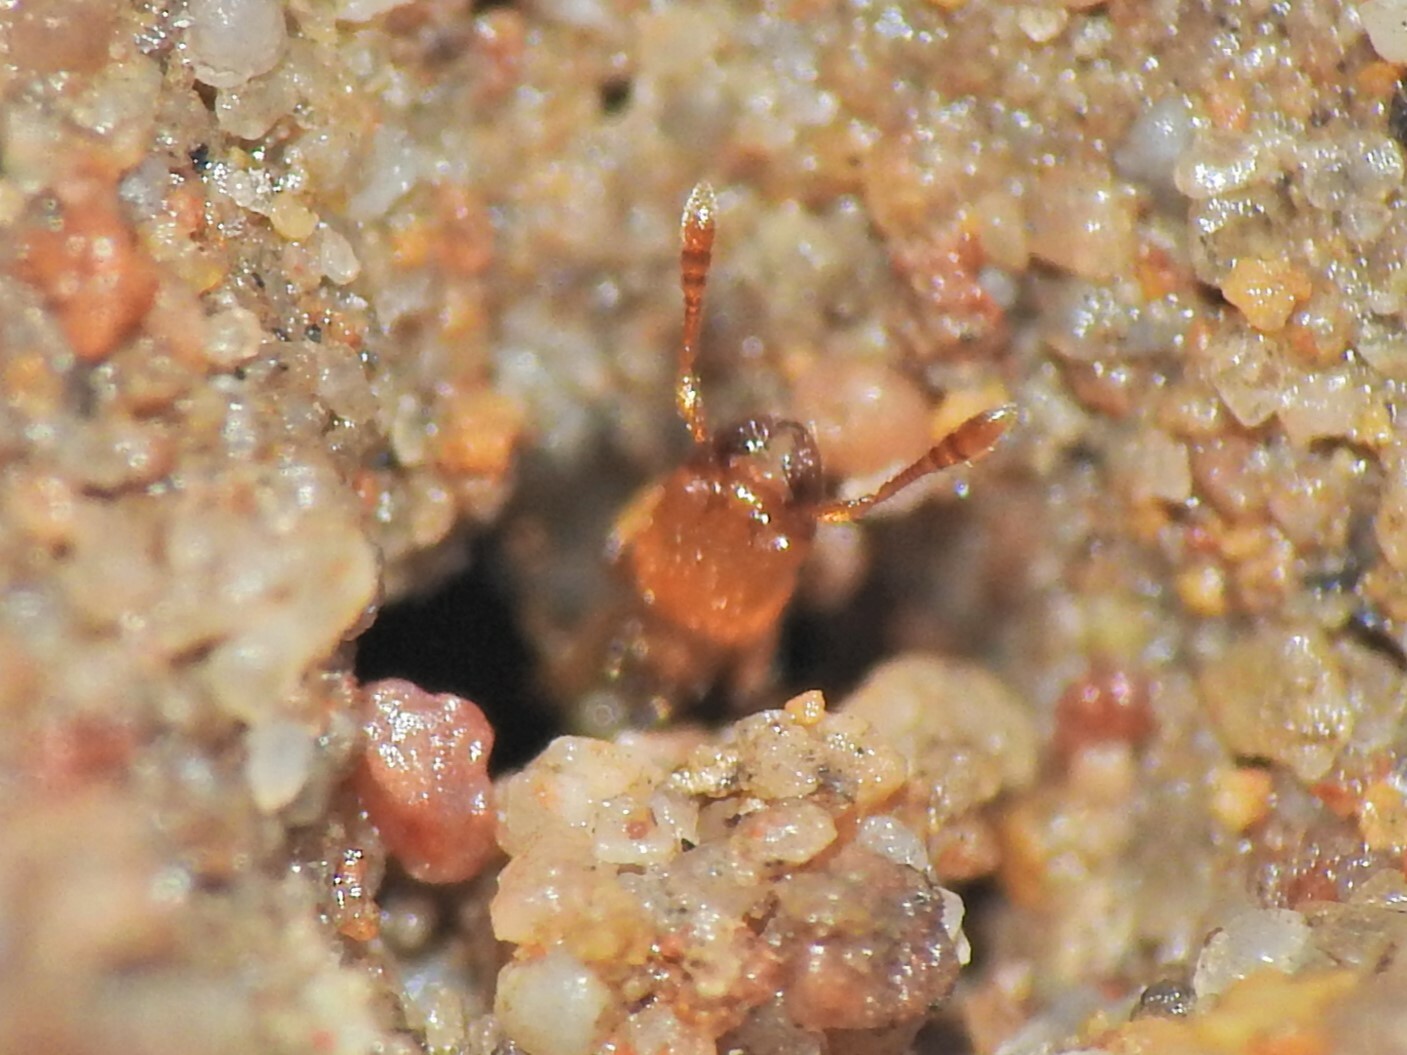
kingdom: Animalia
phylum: Arthropoda
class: Insecta
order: Hymenoptera
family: Formicidae
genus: Pheidole
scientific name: Pheidole
